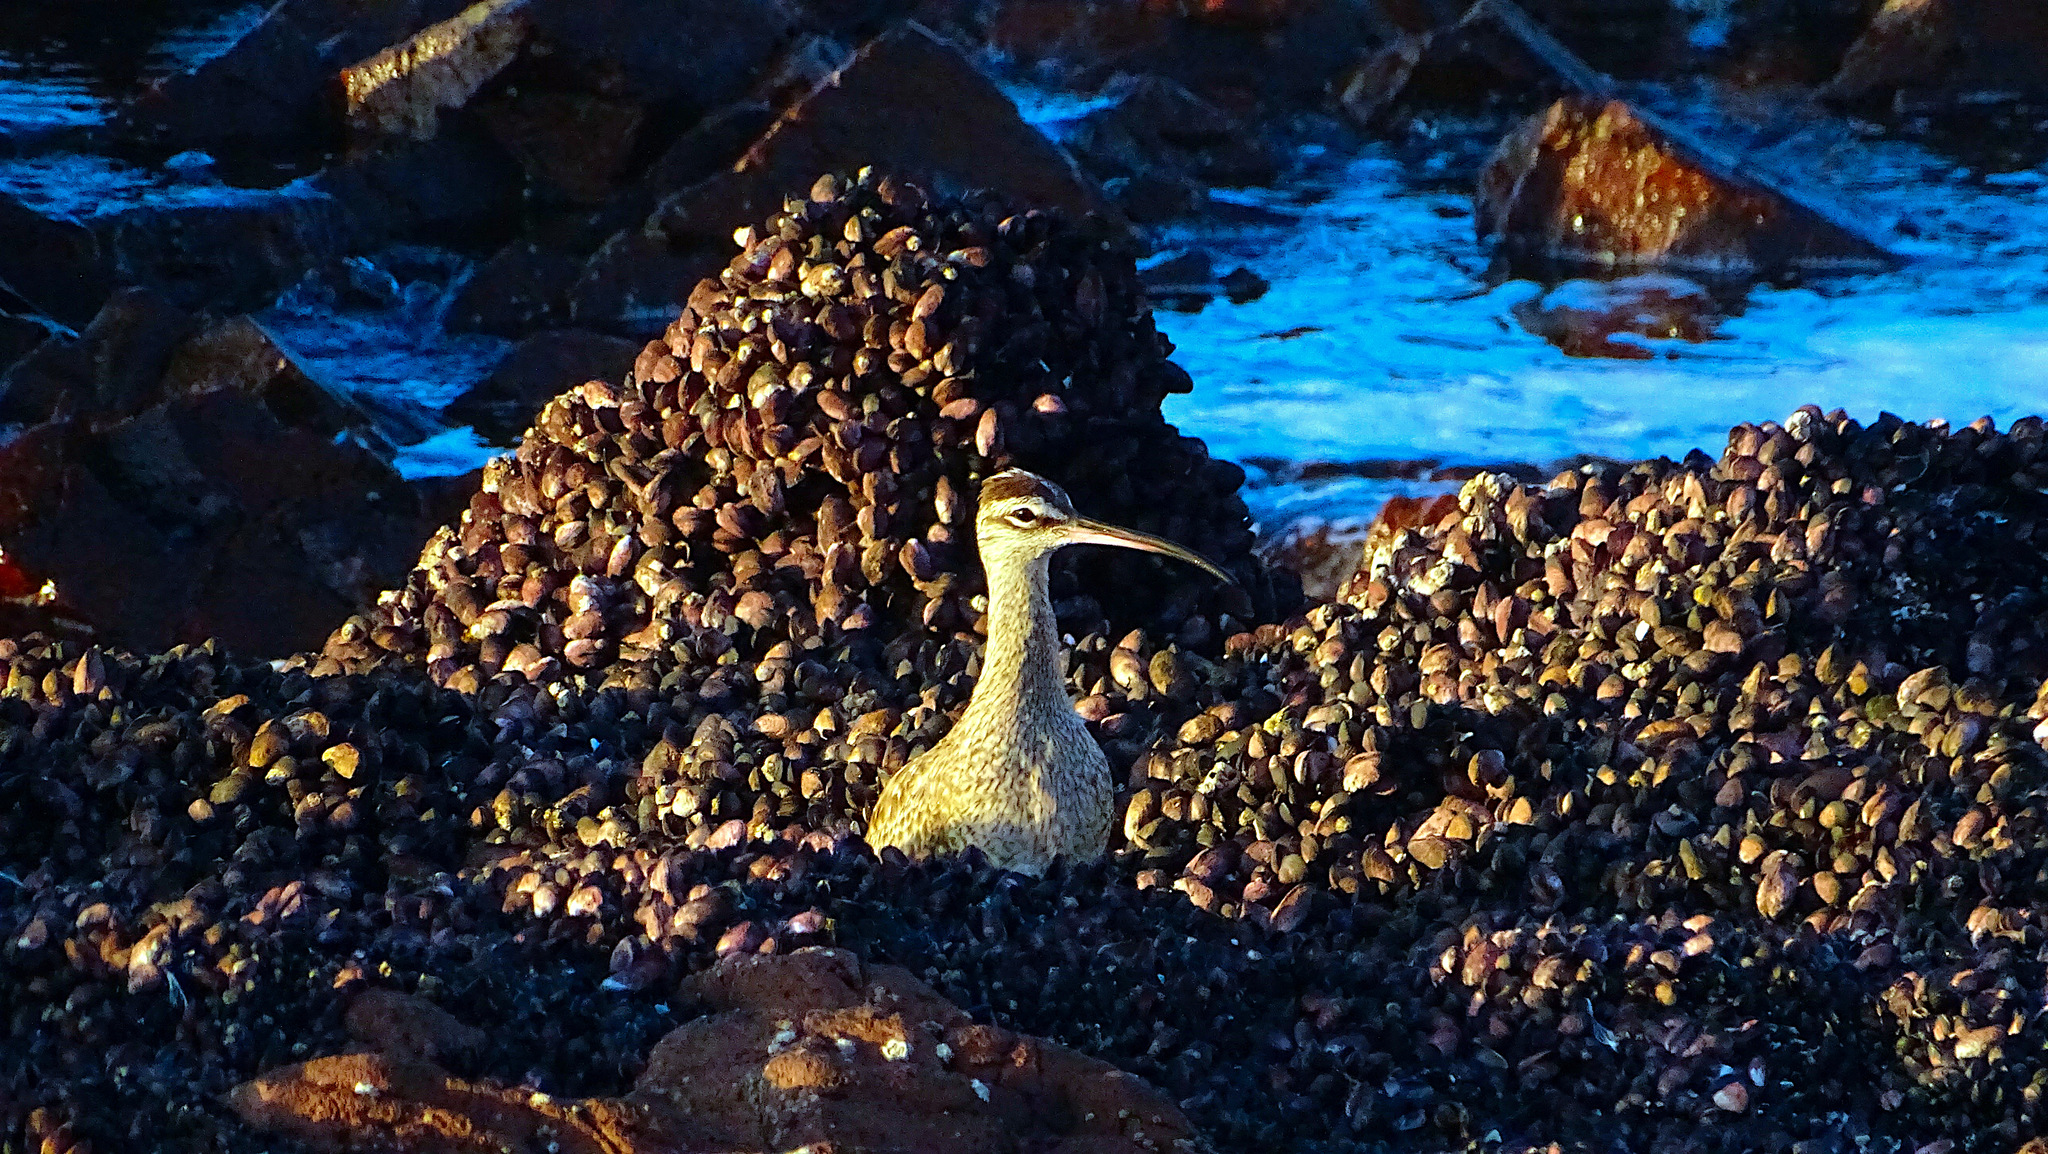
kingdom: Animalia
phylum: Chordata
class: Aves
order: Charadriiformes
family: Scolopacidae
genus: Numenius
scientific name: Numenius phaeopus
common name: Whimbrel
